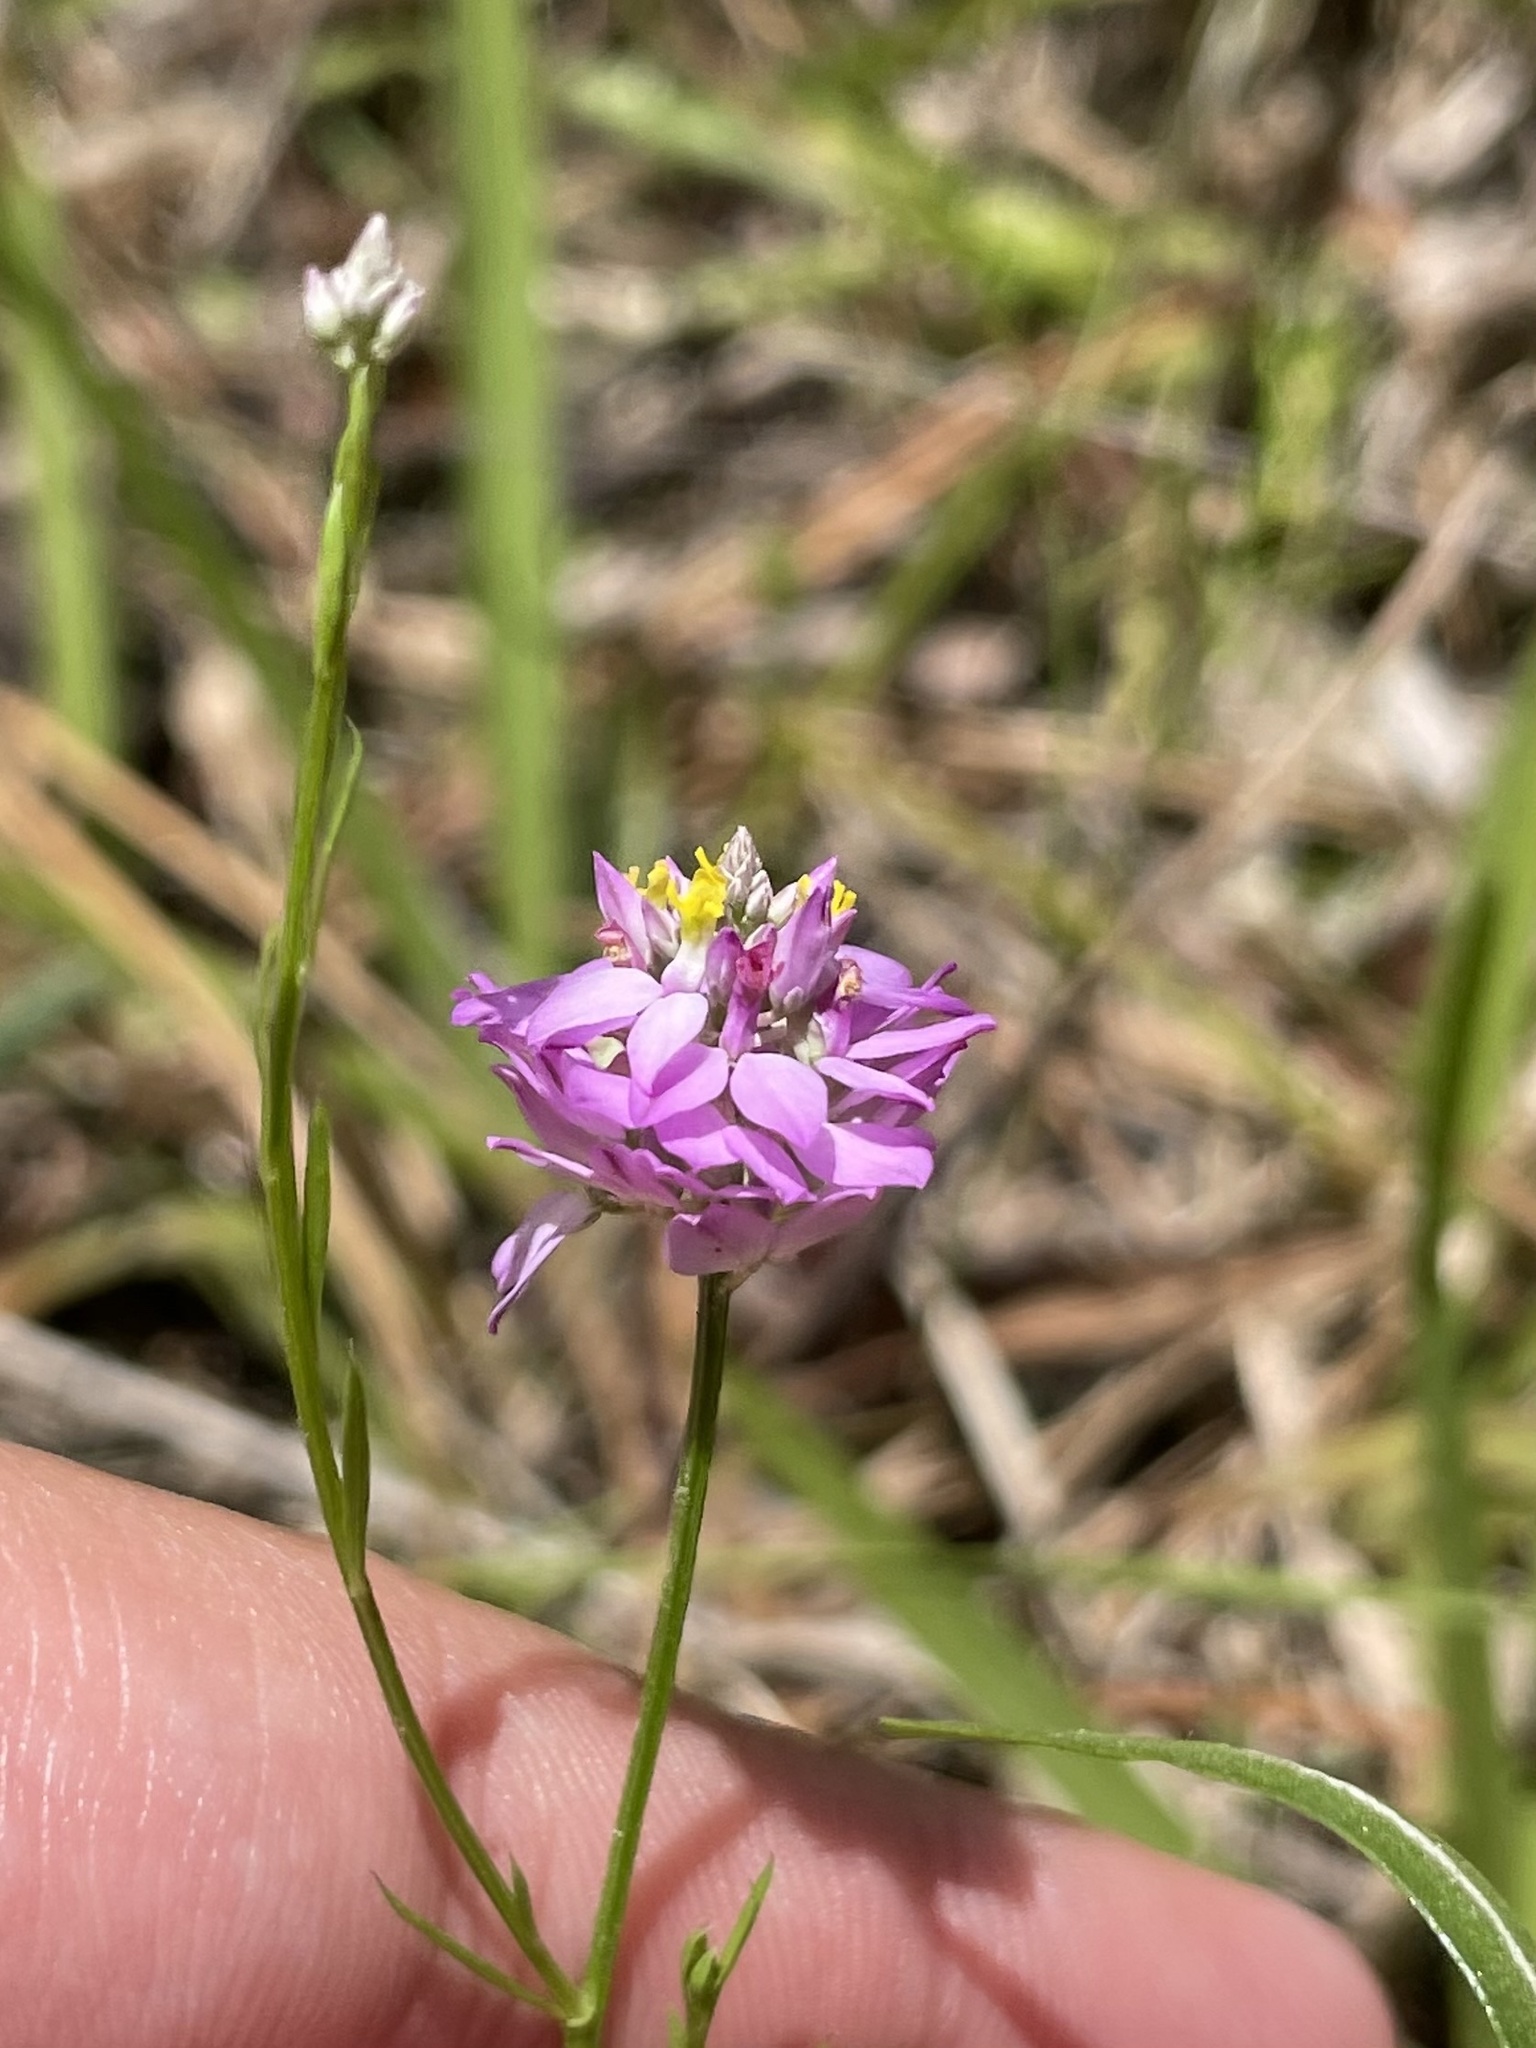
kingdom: Plantae
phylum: Tracheophyta
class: Magnoliopsida
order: Fabales
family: Polygalaceae
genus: Polygala
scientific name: Polygala mariana
